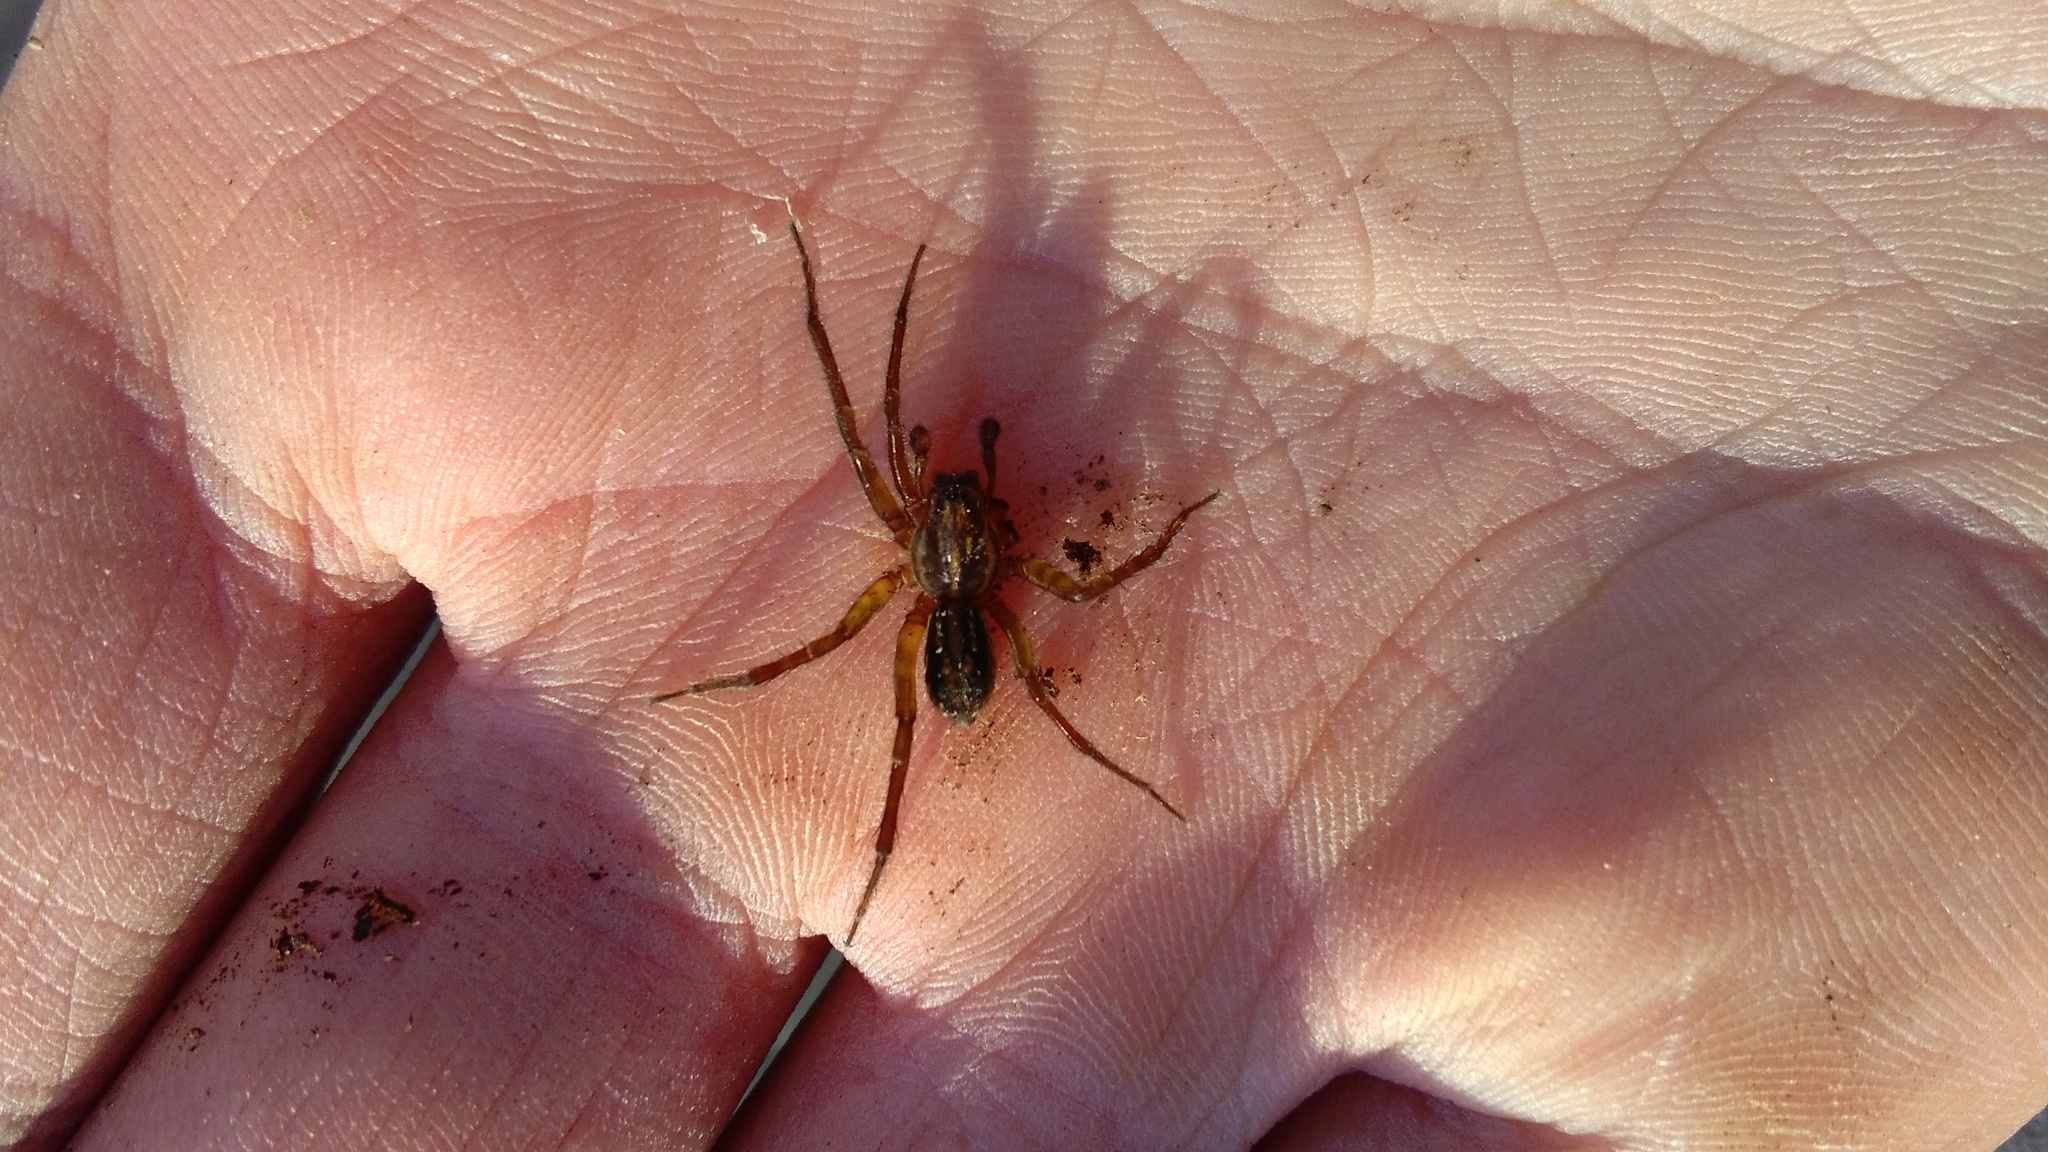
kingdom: Animalia
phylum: Arthropoda
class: Arachnida
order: Araneae
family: Lycosidae
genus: Allotrochosina
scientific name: Allotrochosina schauinslandi
